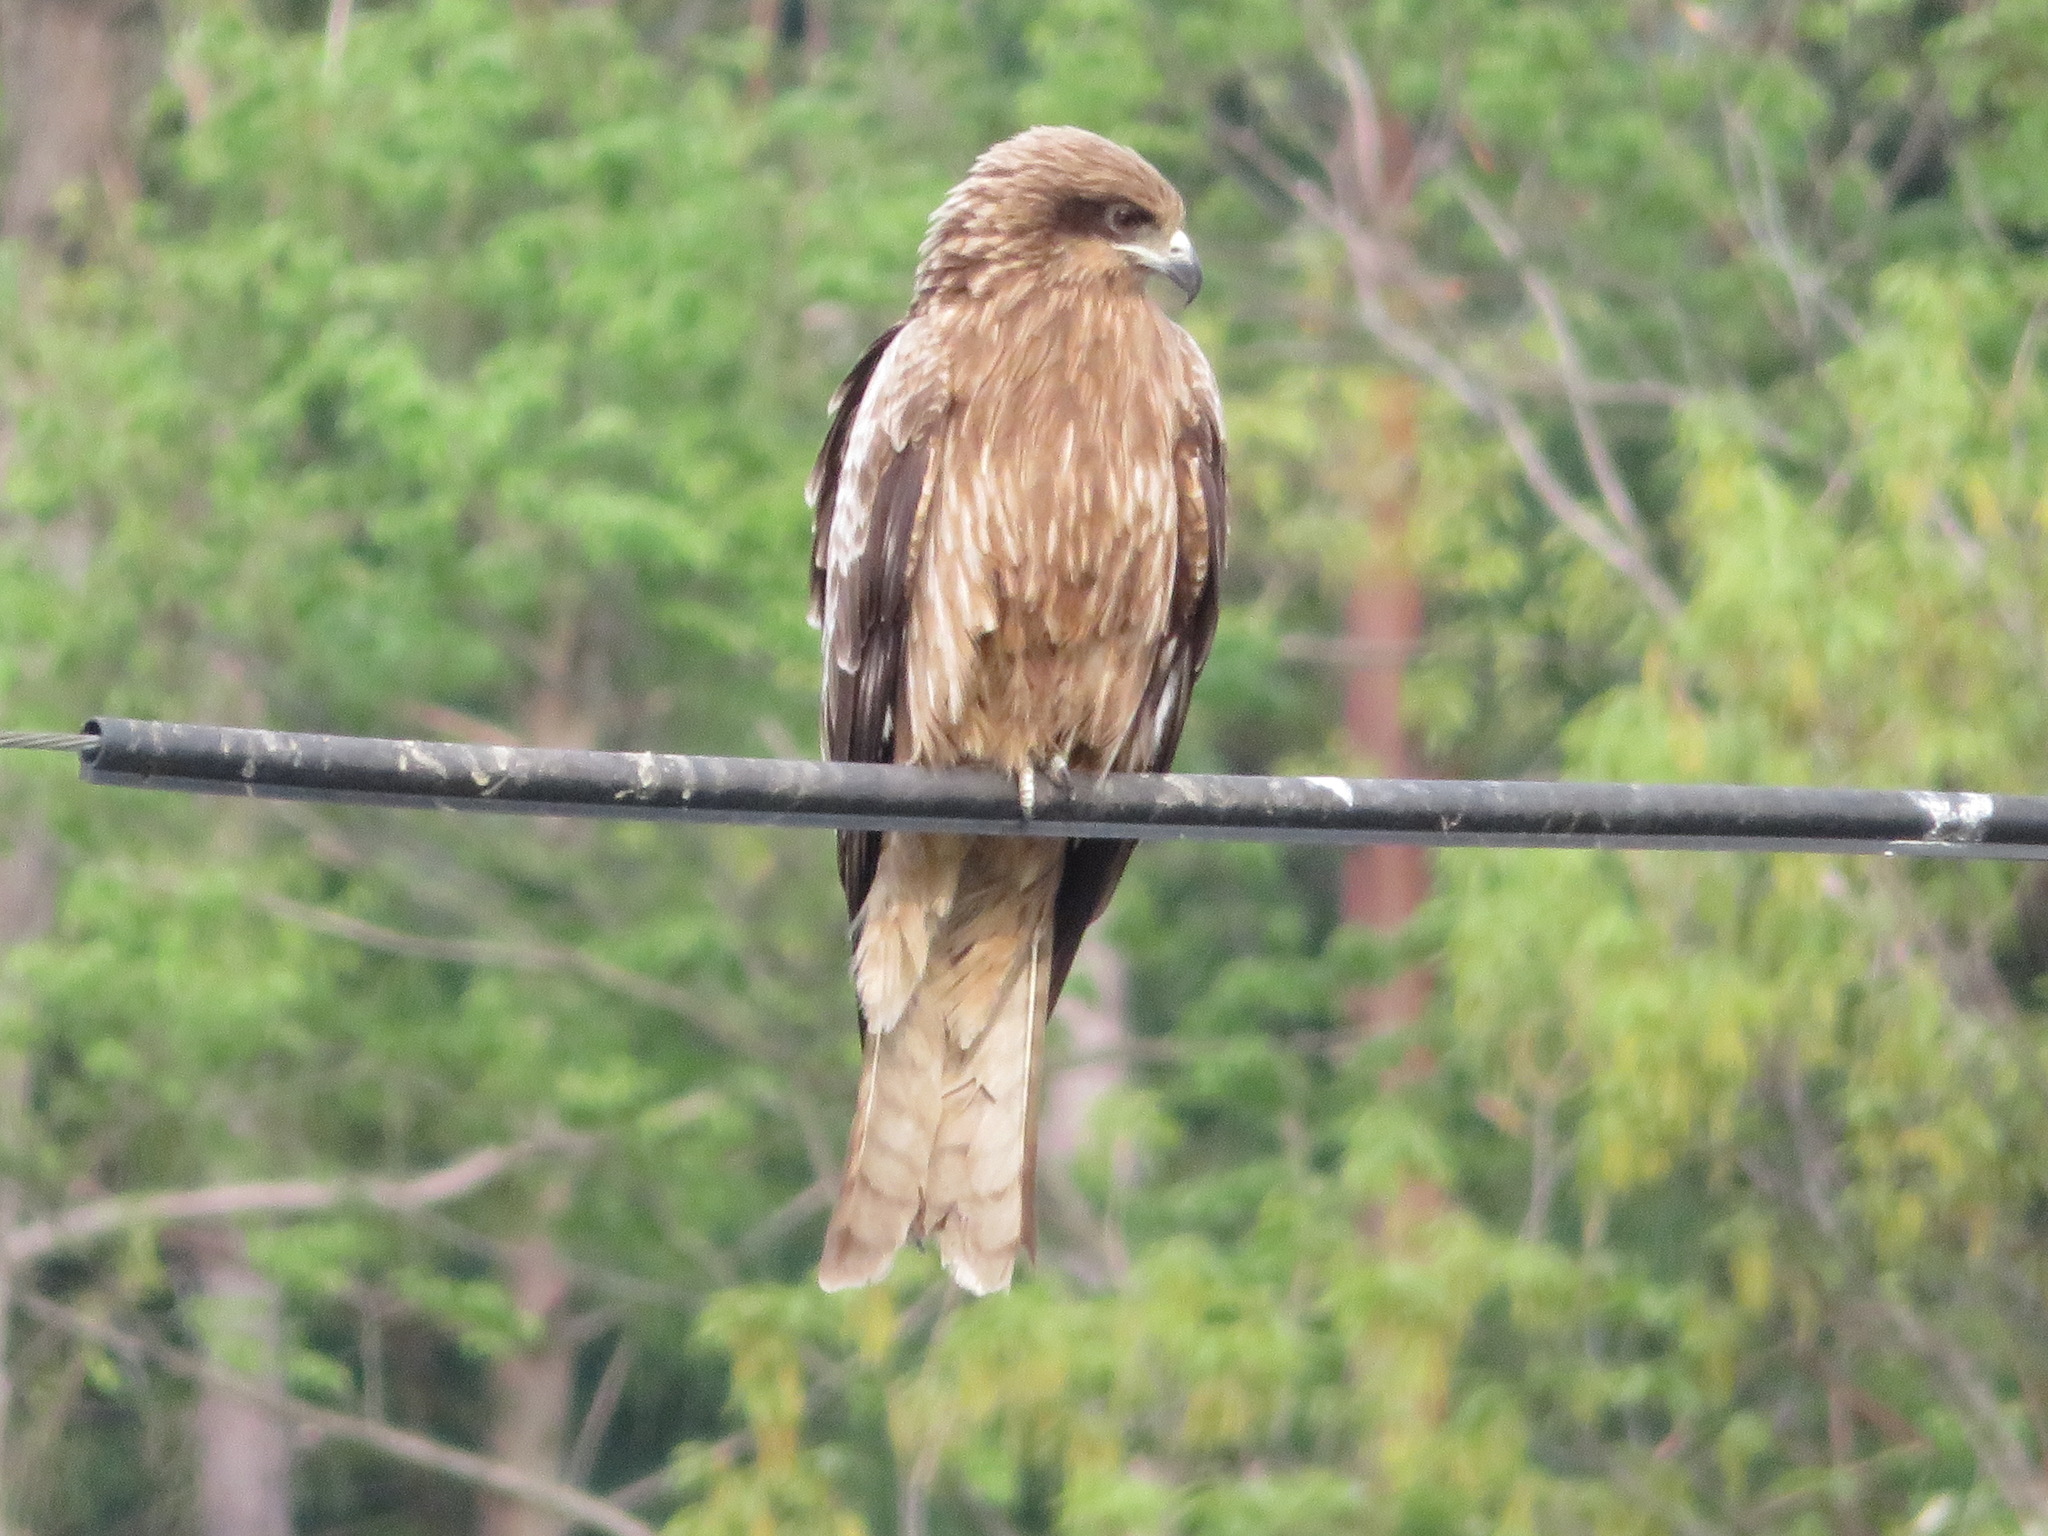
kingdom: Animalia
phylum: Chordata
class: Aves
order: Accipitriformes
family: Accipitridae
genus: Milvus
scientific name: Milvus migrans
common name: Black kite
